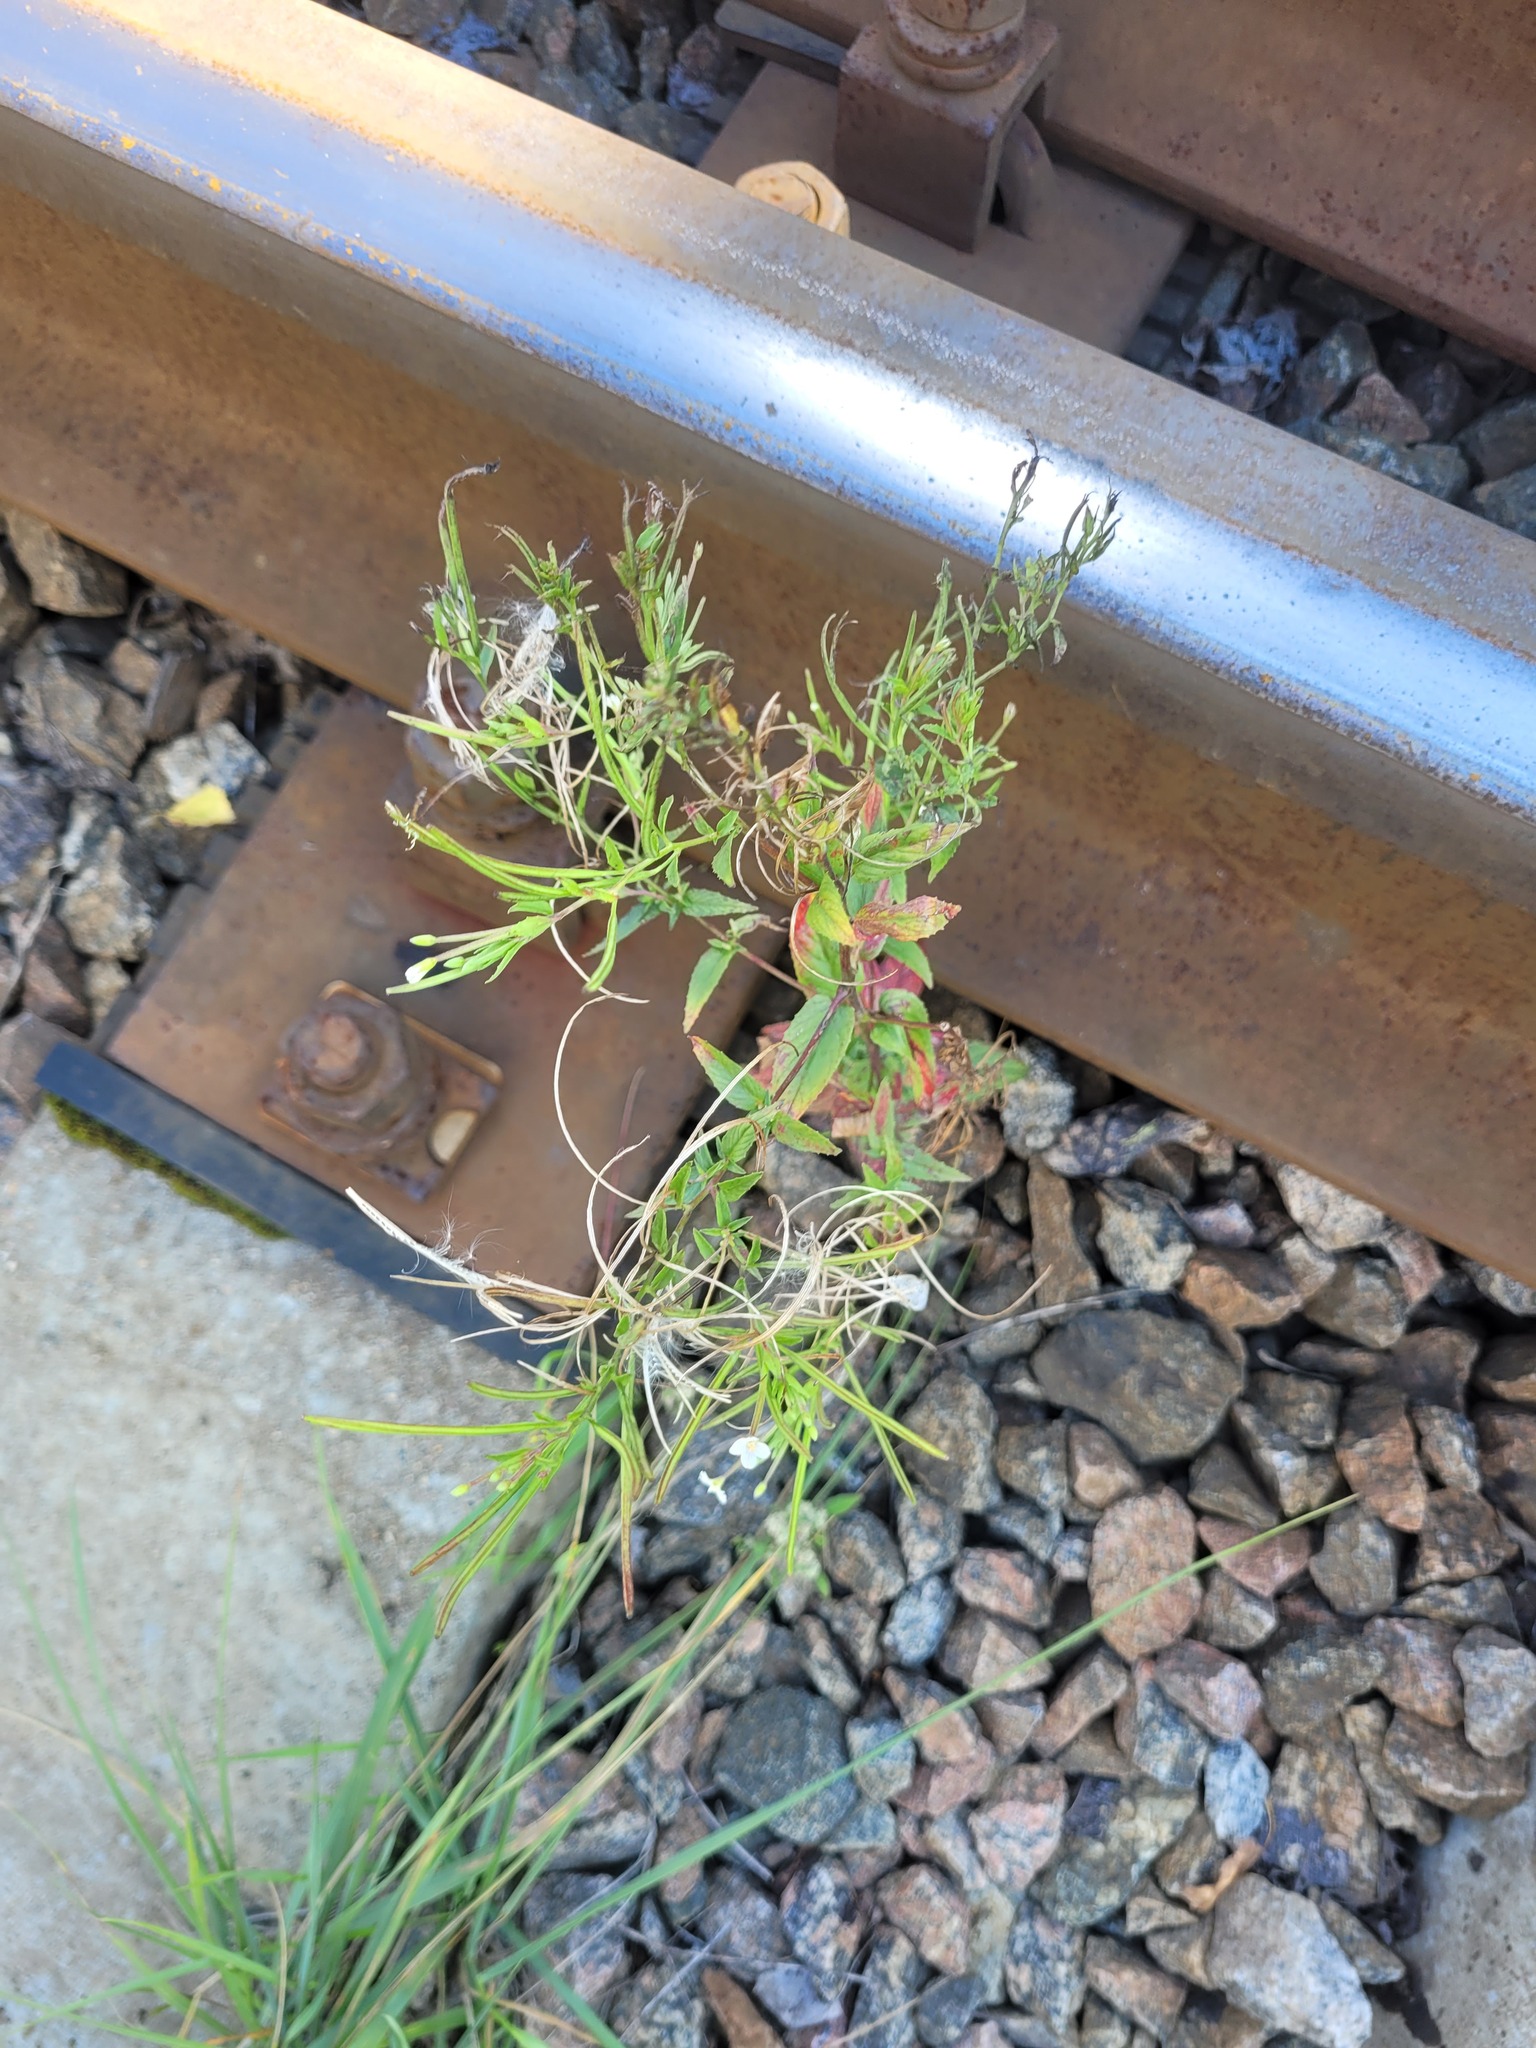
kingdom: Plantae
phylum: Tracheophyta
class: Magnoliopsida
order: Myrtales
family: Onagraceae
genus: Epilobium
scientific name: Epilobium pseudorubescens
